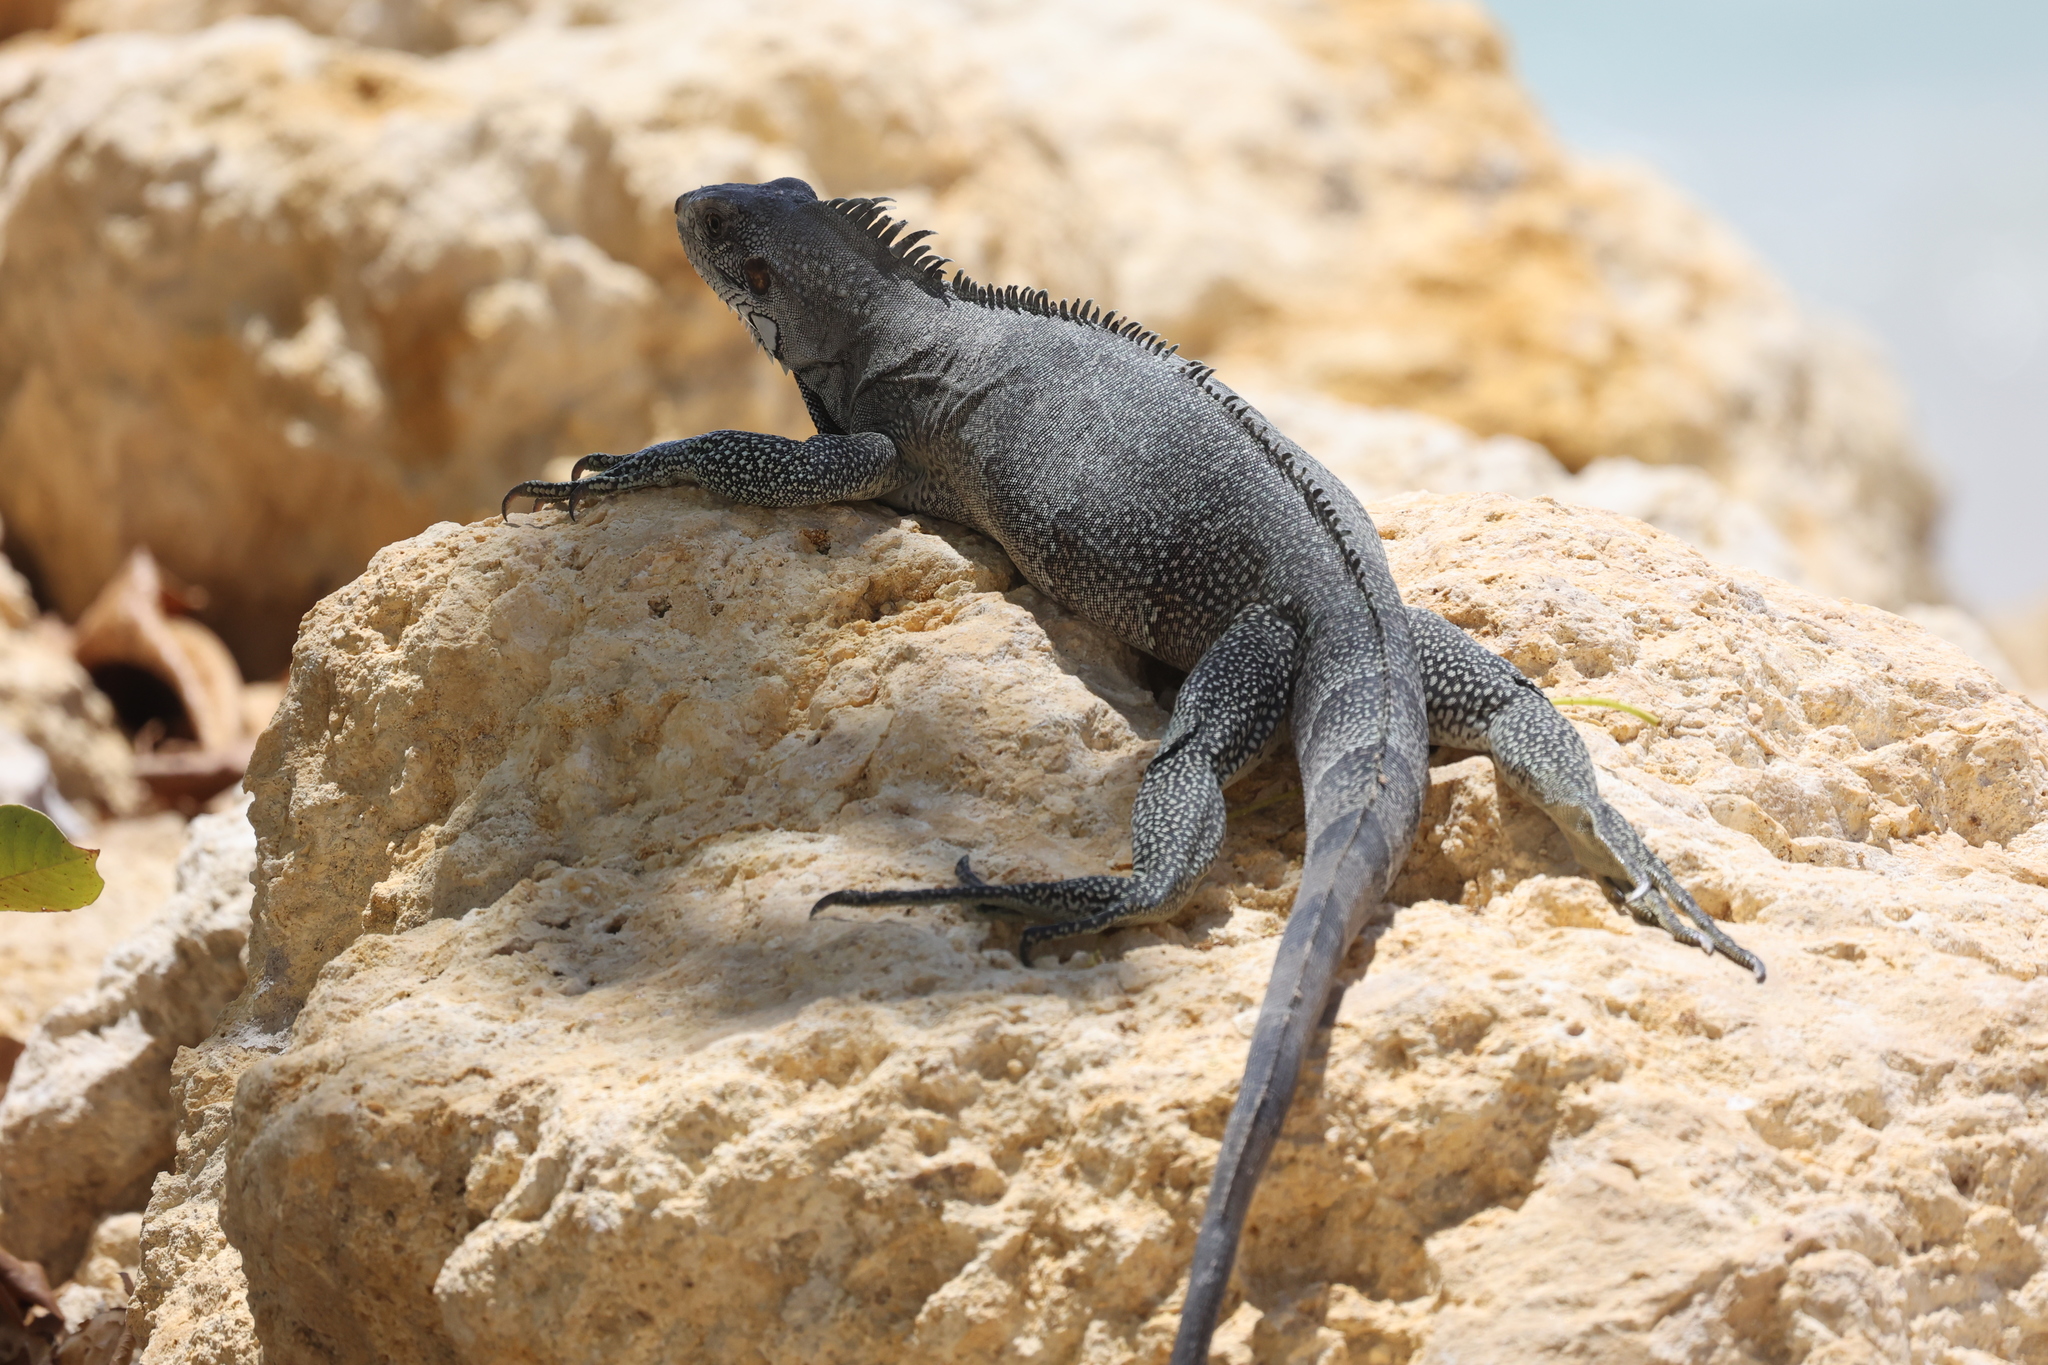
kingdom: Animalia
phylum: Chordata
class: Squamata
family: Iguanidae
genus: Iguana
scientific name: Iguana iguana
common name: Green iguana
